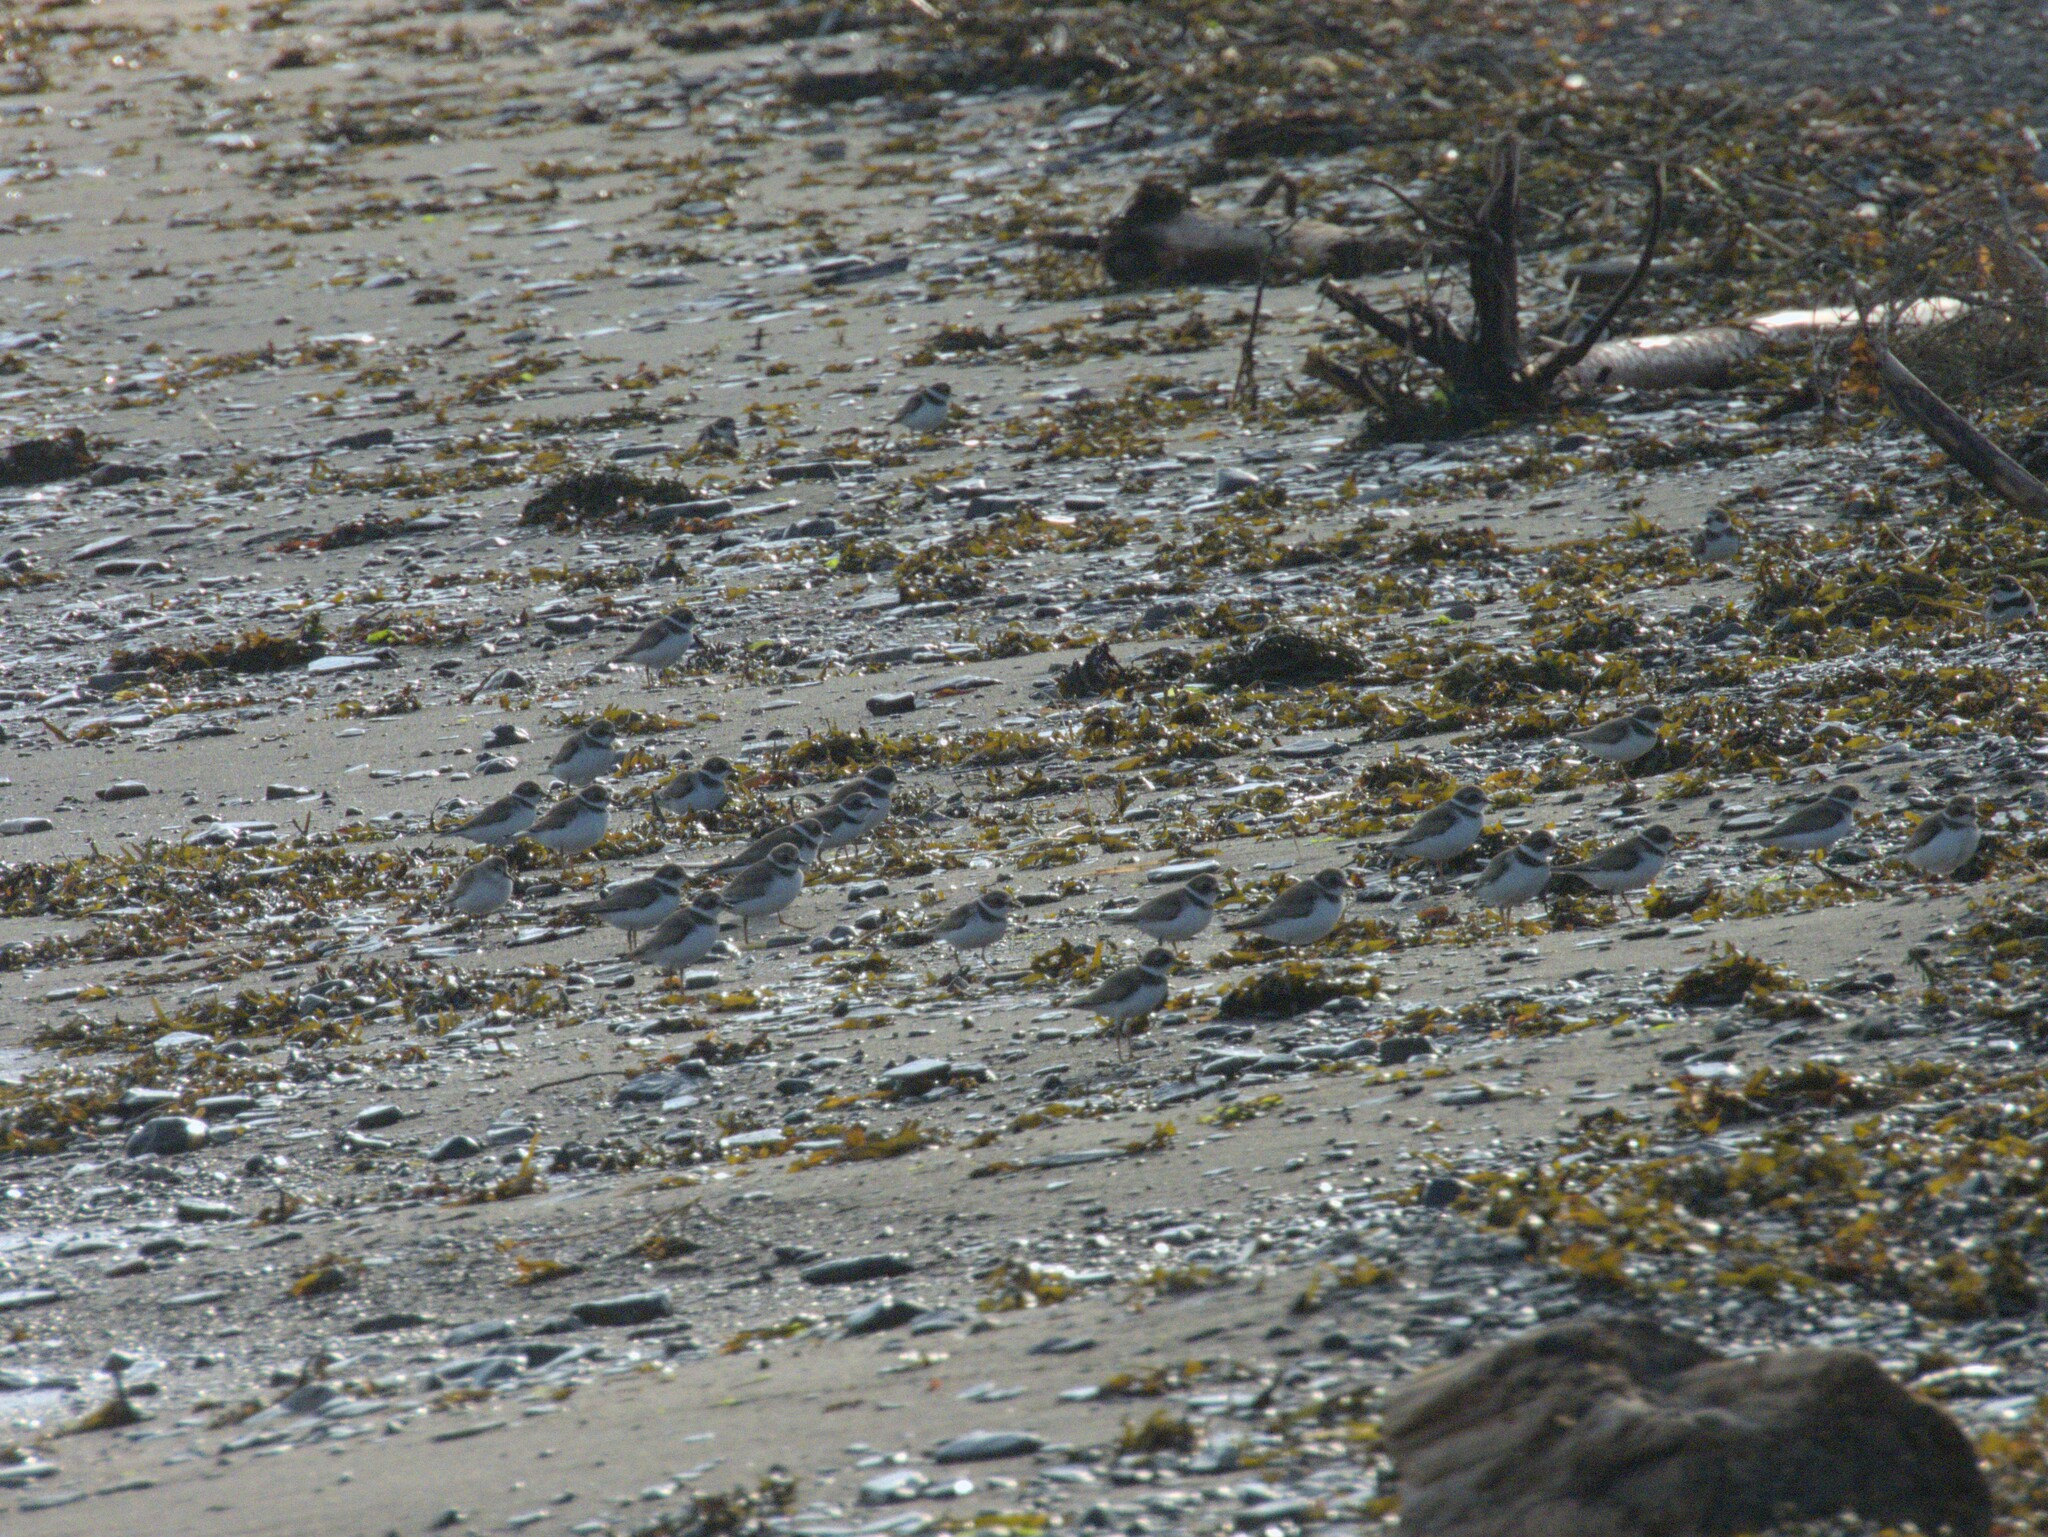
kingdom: Animalia
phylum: Chordata
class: Aves
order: Charadriiformes
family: Charadriidae
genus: Charadrius
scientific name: Charadrius semipalmatus
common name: Semipalmated plover
